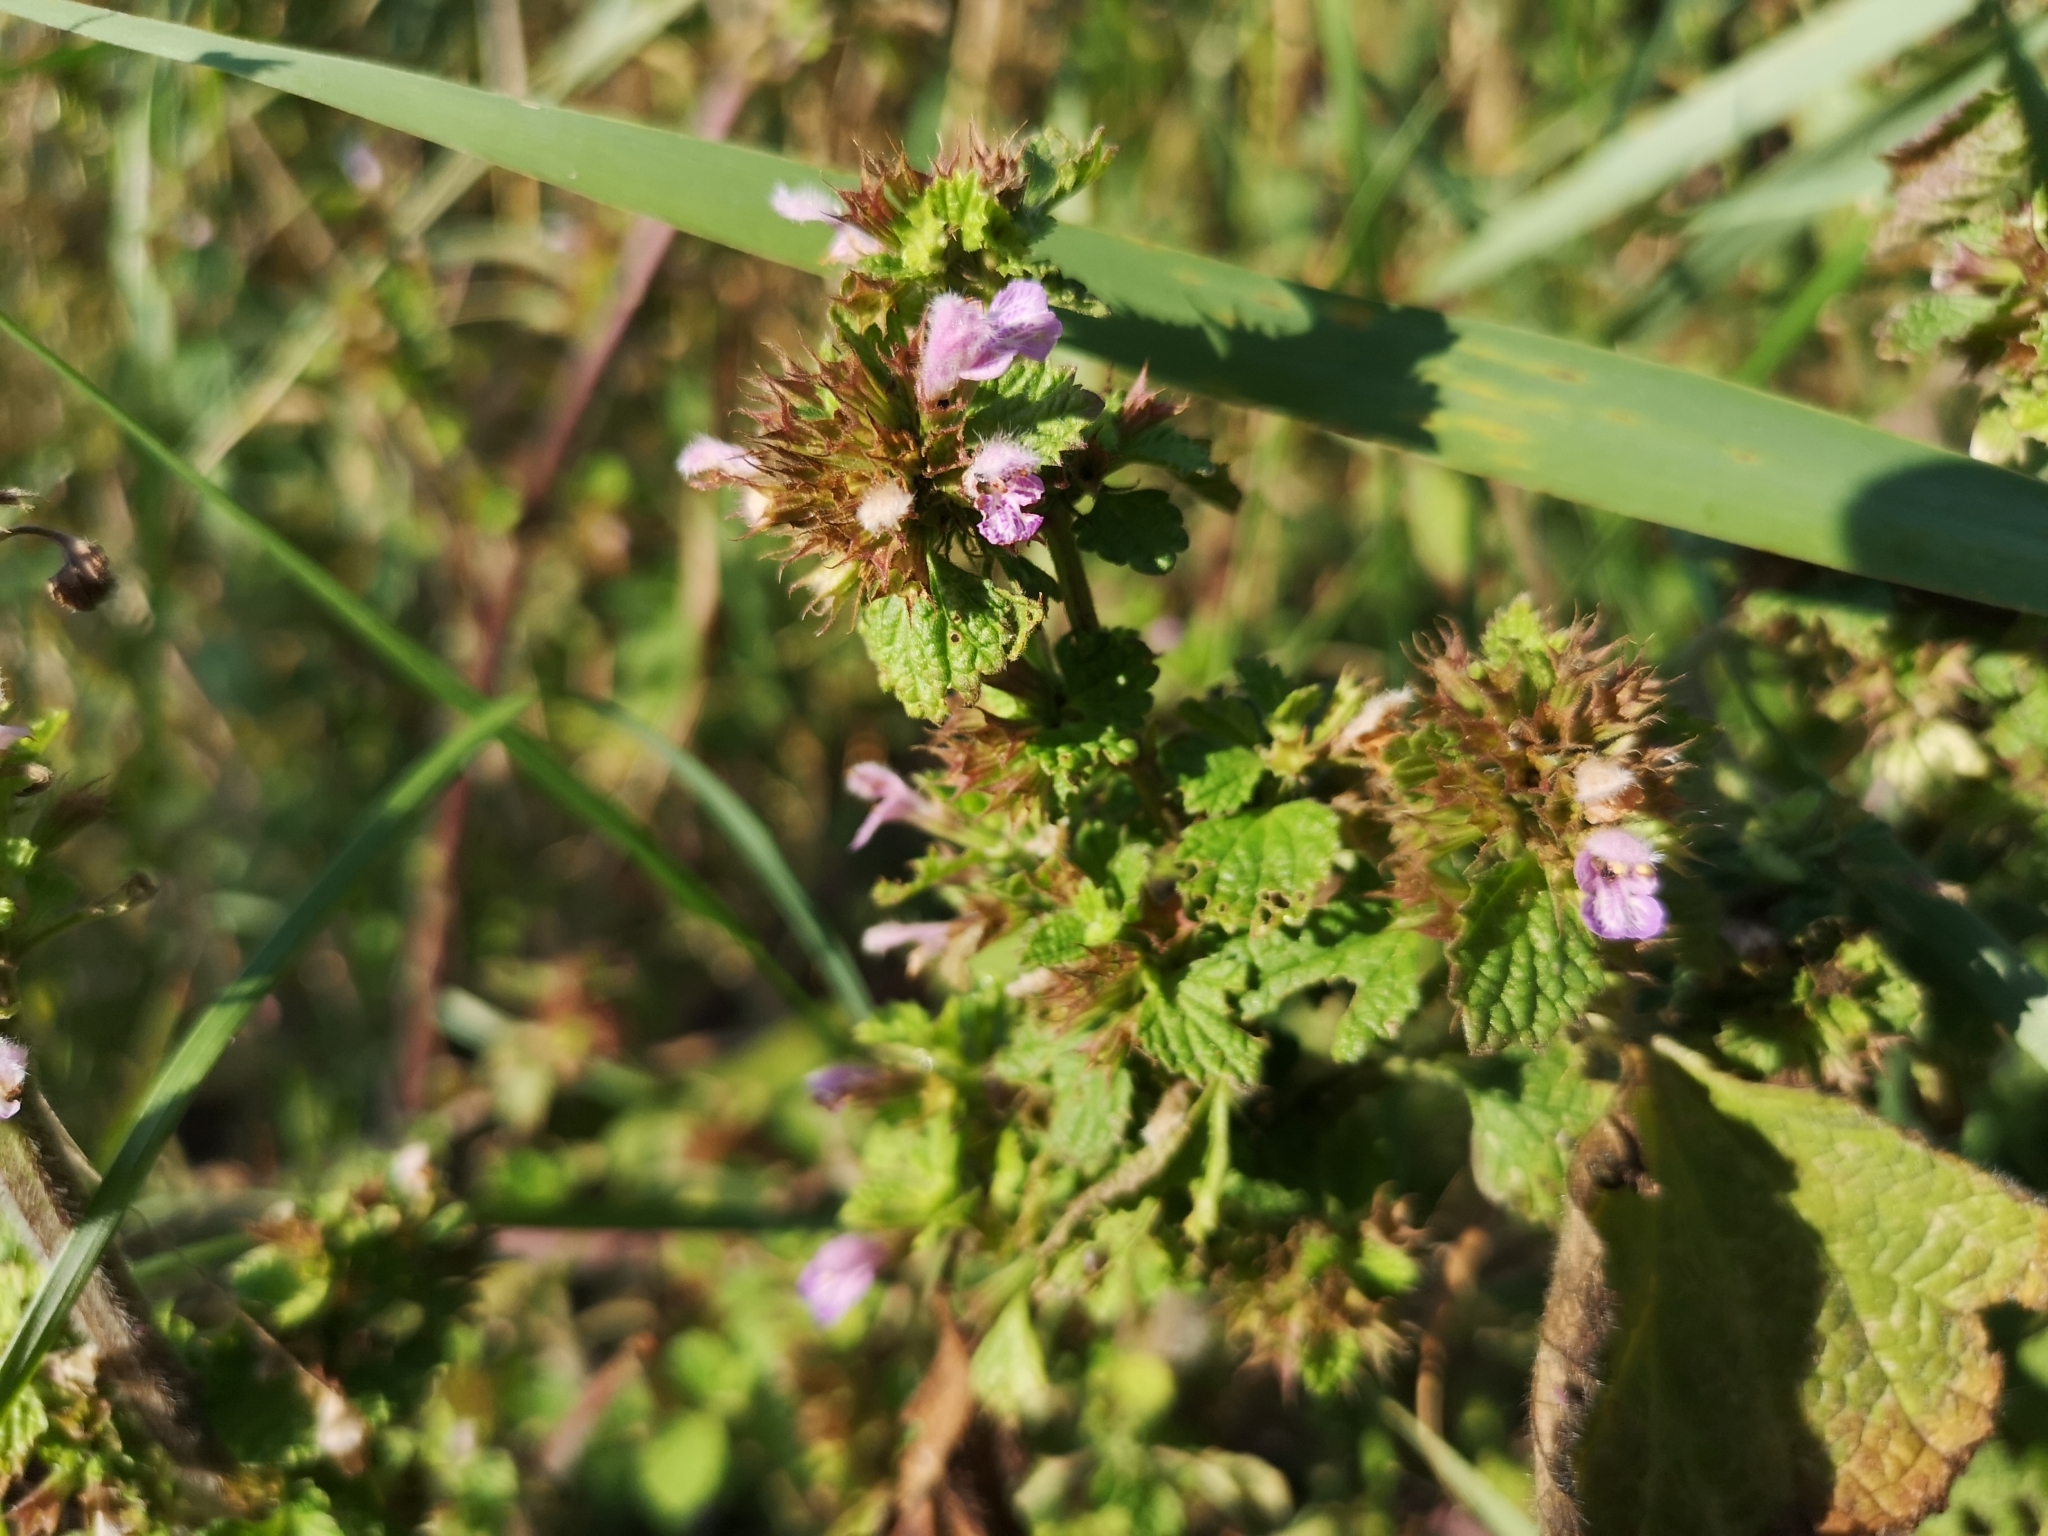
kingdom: Plantae
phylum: Tracheophyta
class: Magnoliopsida
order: Lamiales
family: Lamiaceae
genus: Ballota
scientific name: Ballota nigra
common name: Black horehound
